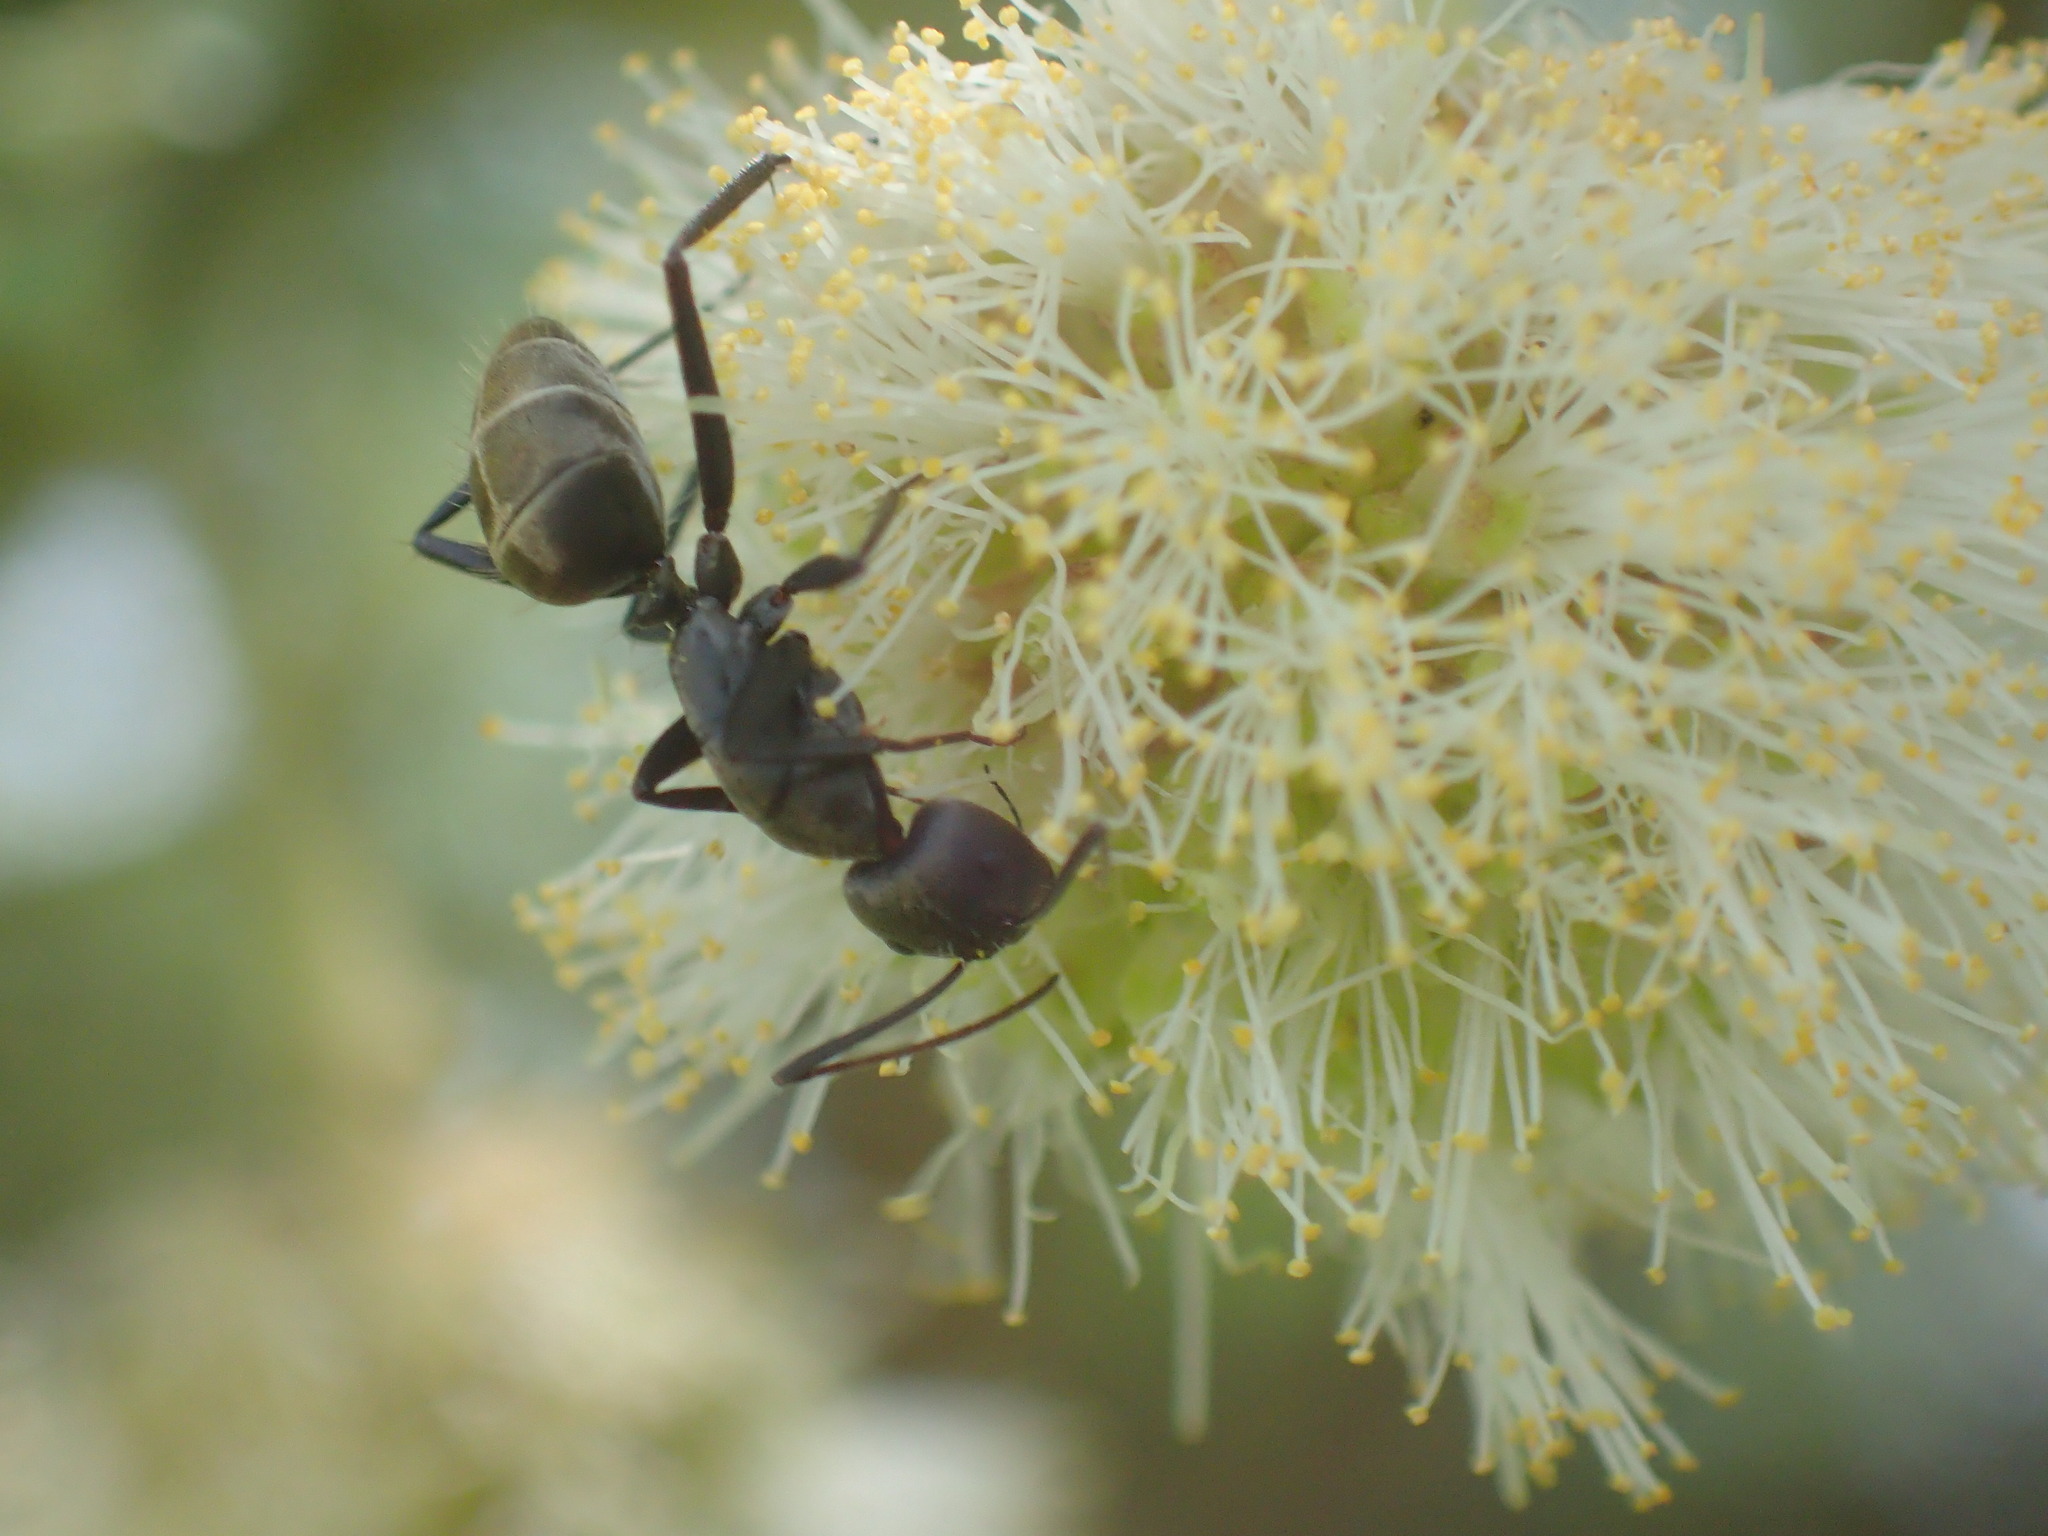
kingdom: Animalia
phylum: Arthropoda
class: Insecta
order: Hymenoptera
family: Formicidae
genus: Camponotus
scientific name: Camponotus cinctellus
